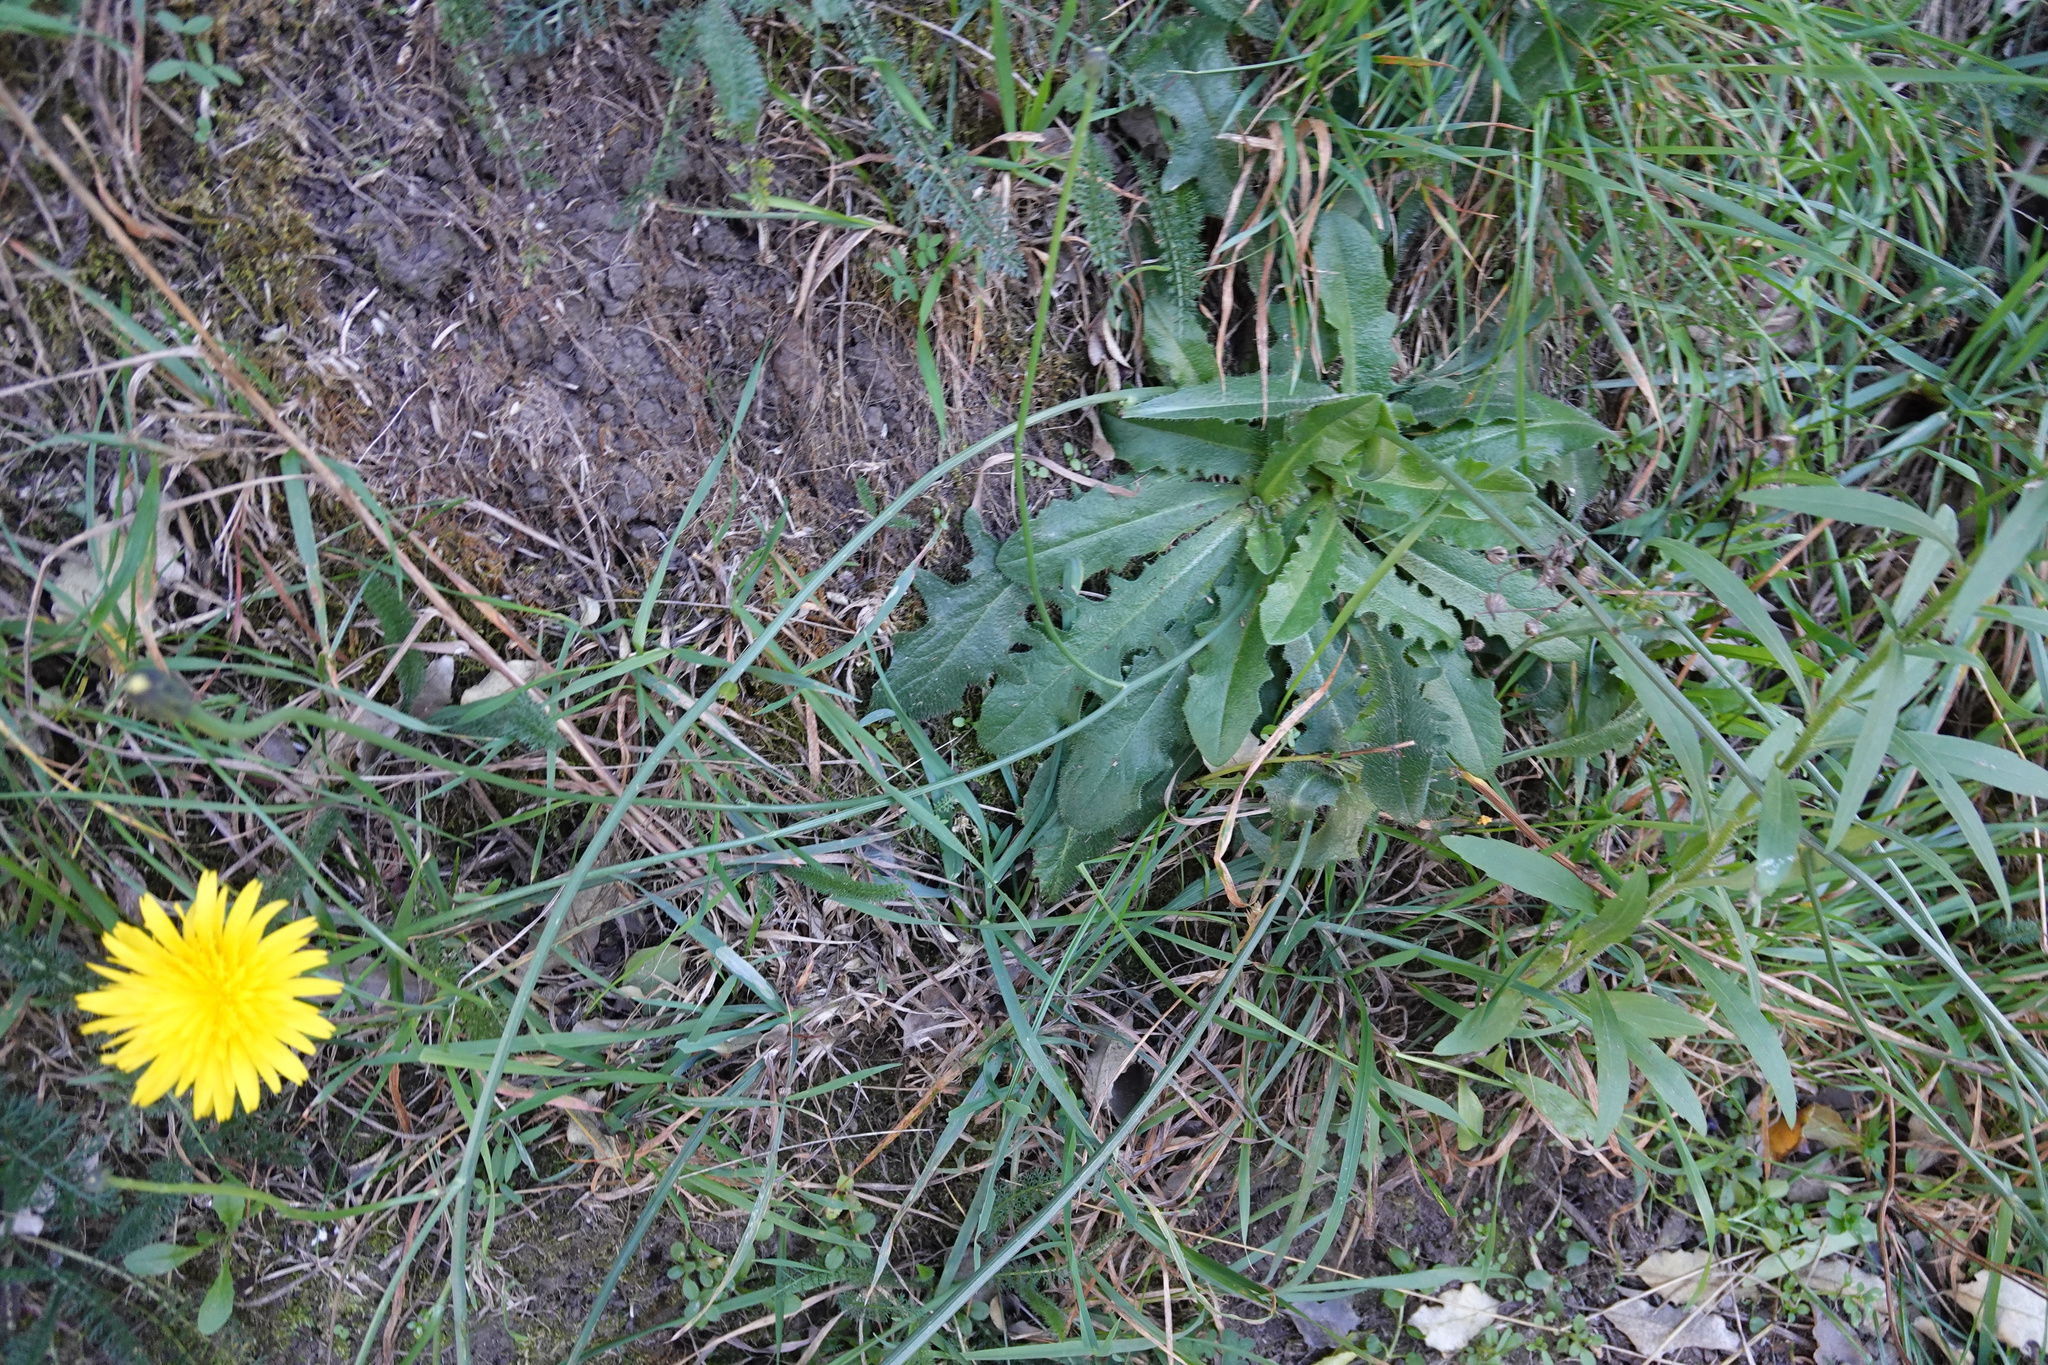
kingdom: Plantae
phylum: Tracheophyta
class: Magnoliopsida
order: Asterales
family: Asteraceae
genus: Hypochaeris
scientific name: Hypochaeris radicata
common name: Flatweed
